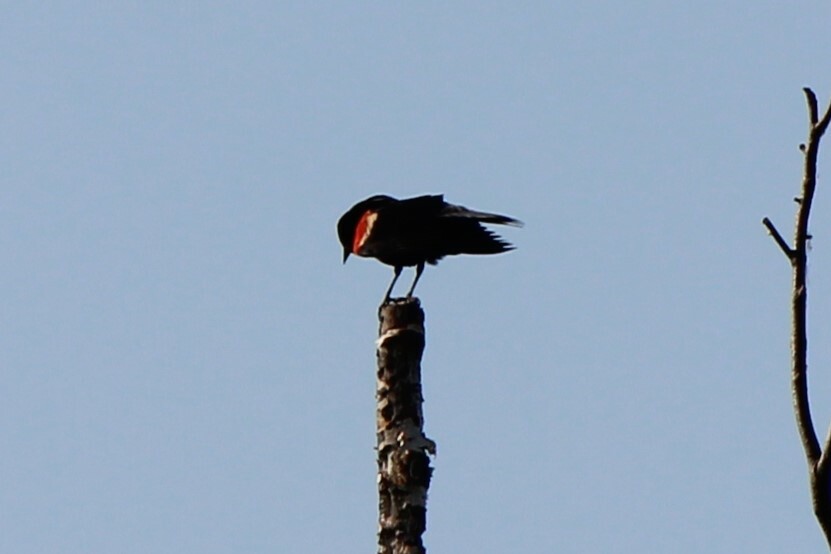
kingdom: Animalia
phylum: Chordata
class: Aves
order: Passeriformes
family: Icteridae
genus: Agelaius
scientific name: Agelaius phoeniceus
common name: Red-winged blackbird
